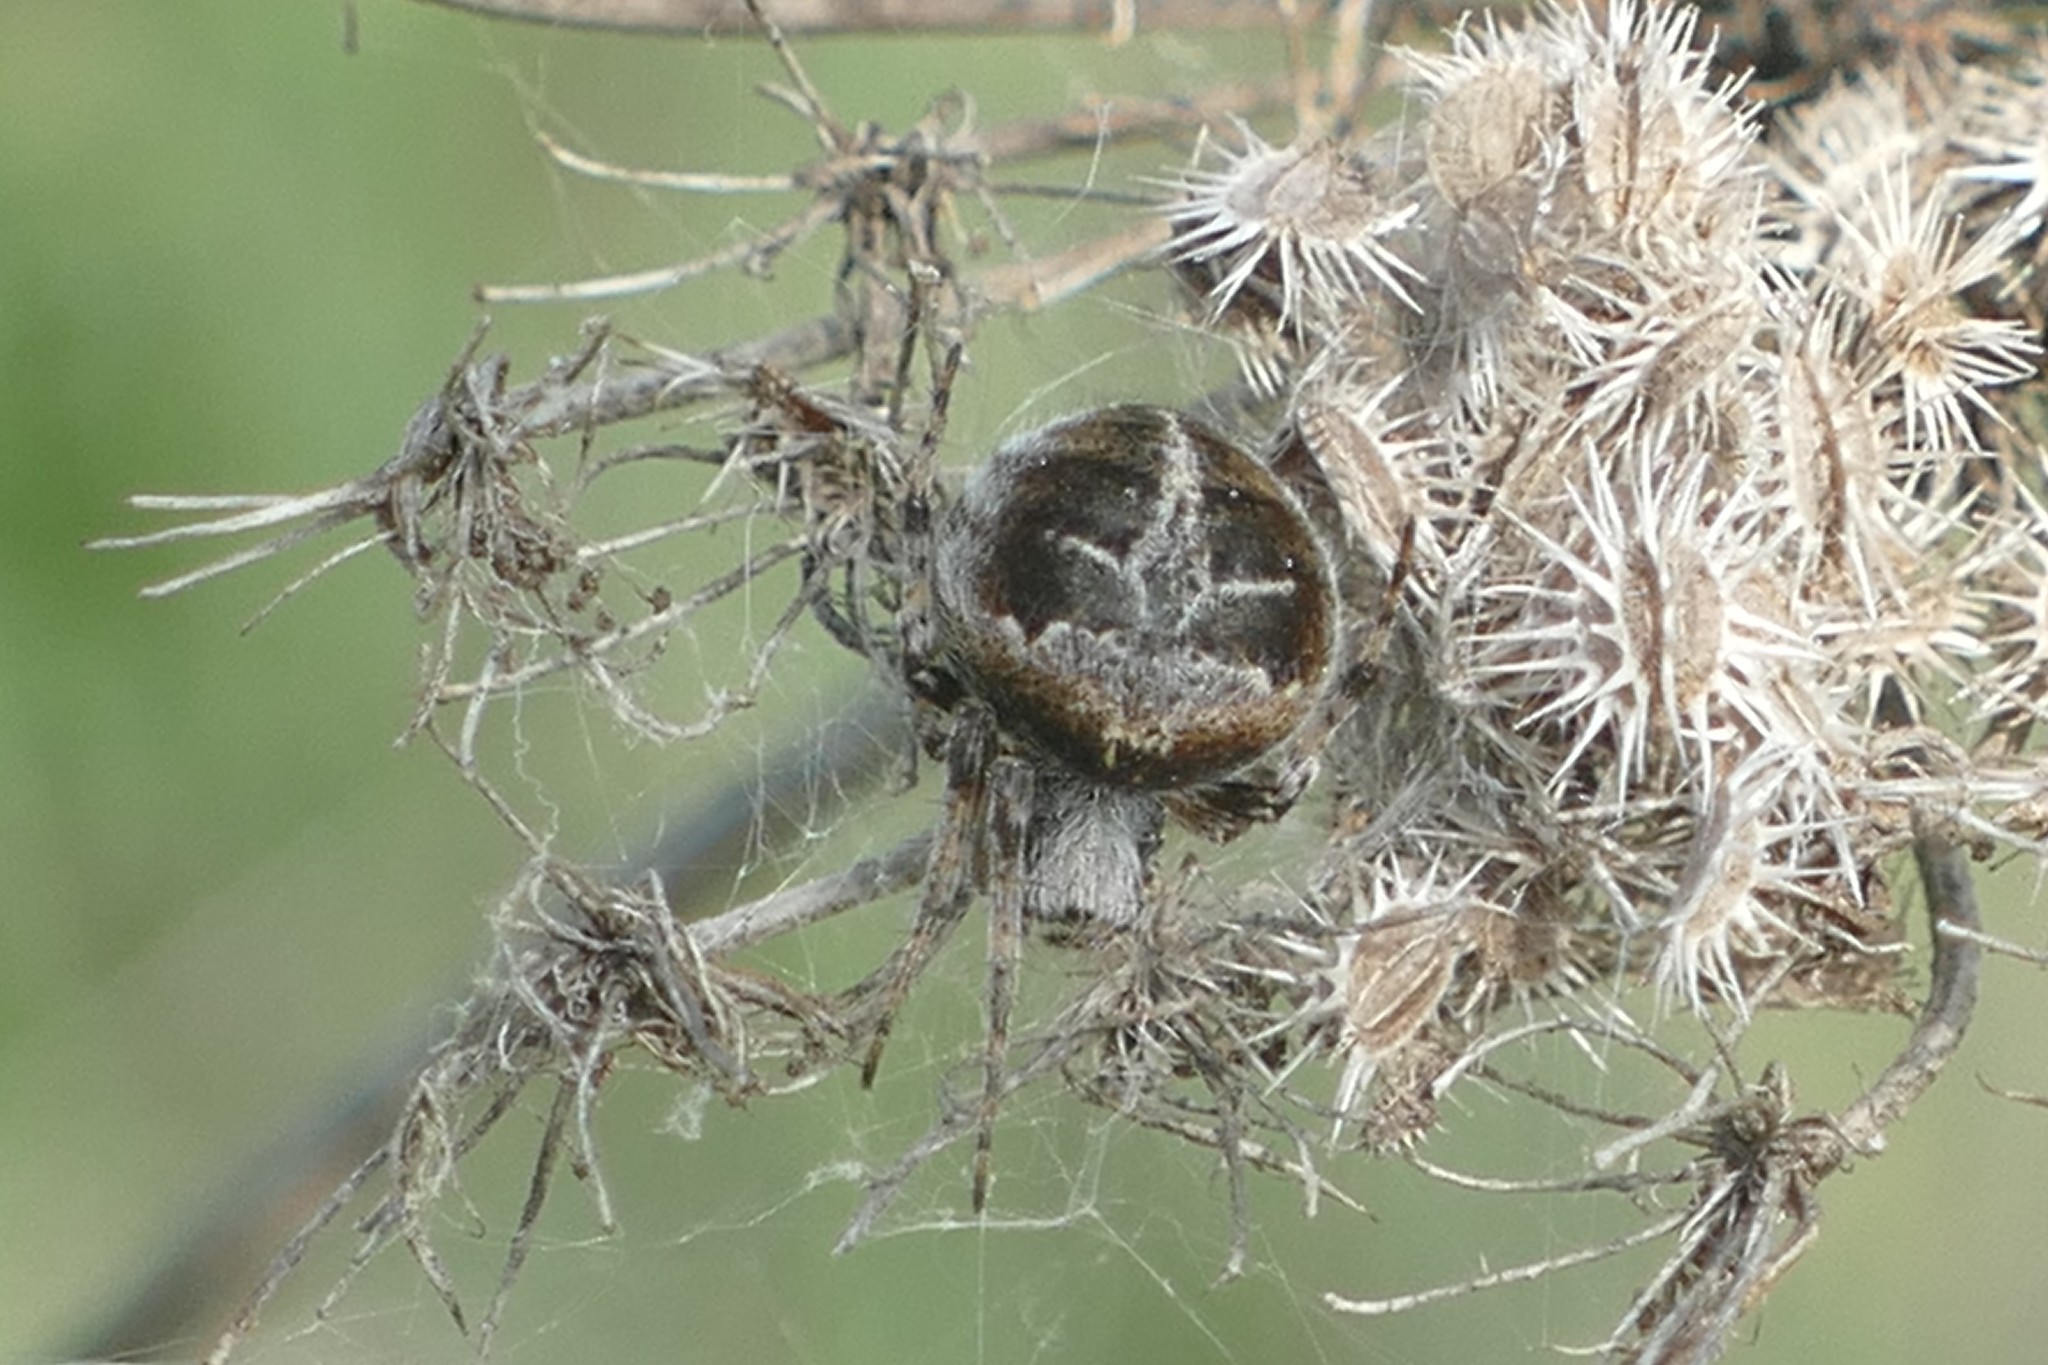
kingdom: Animalia
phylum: Arthropoda
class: Arachnida
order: Araneae
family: Araneidae
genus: Agalenatea
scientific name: Agalenatea redii
